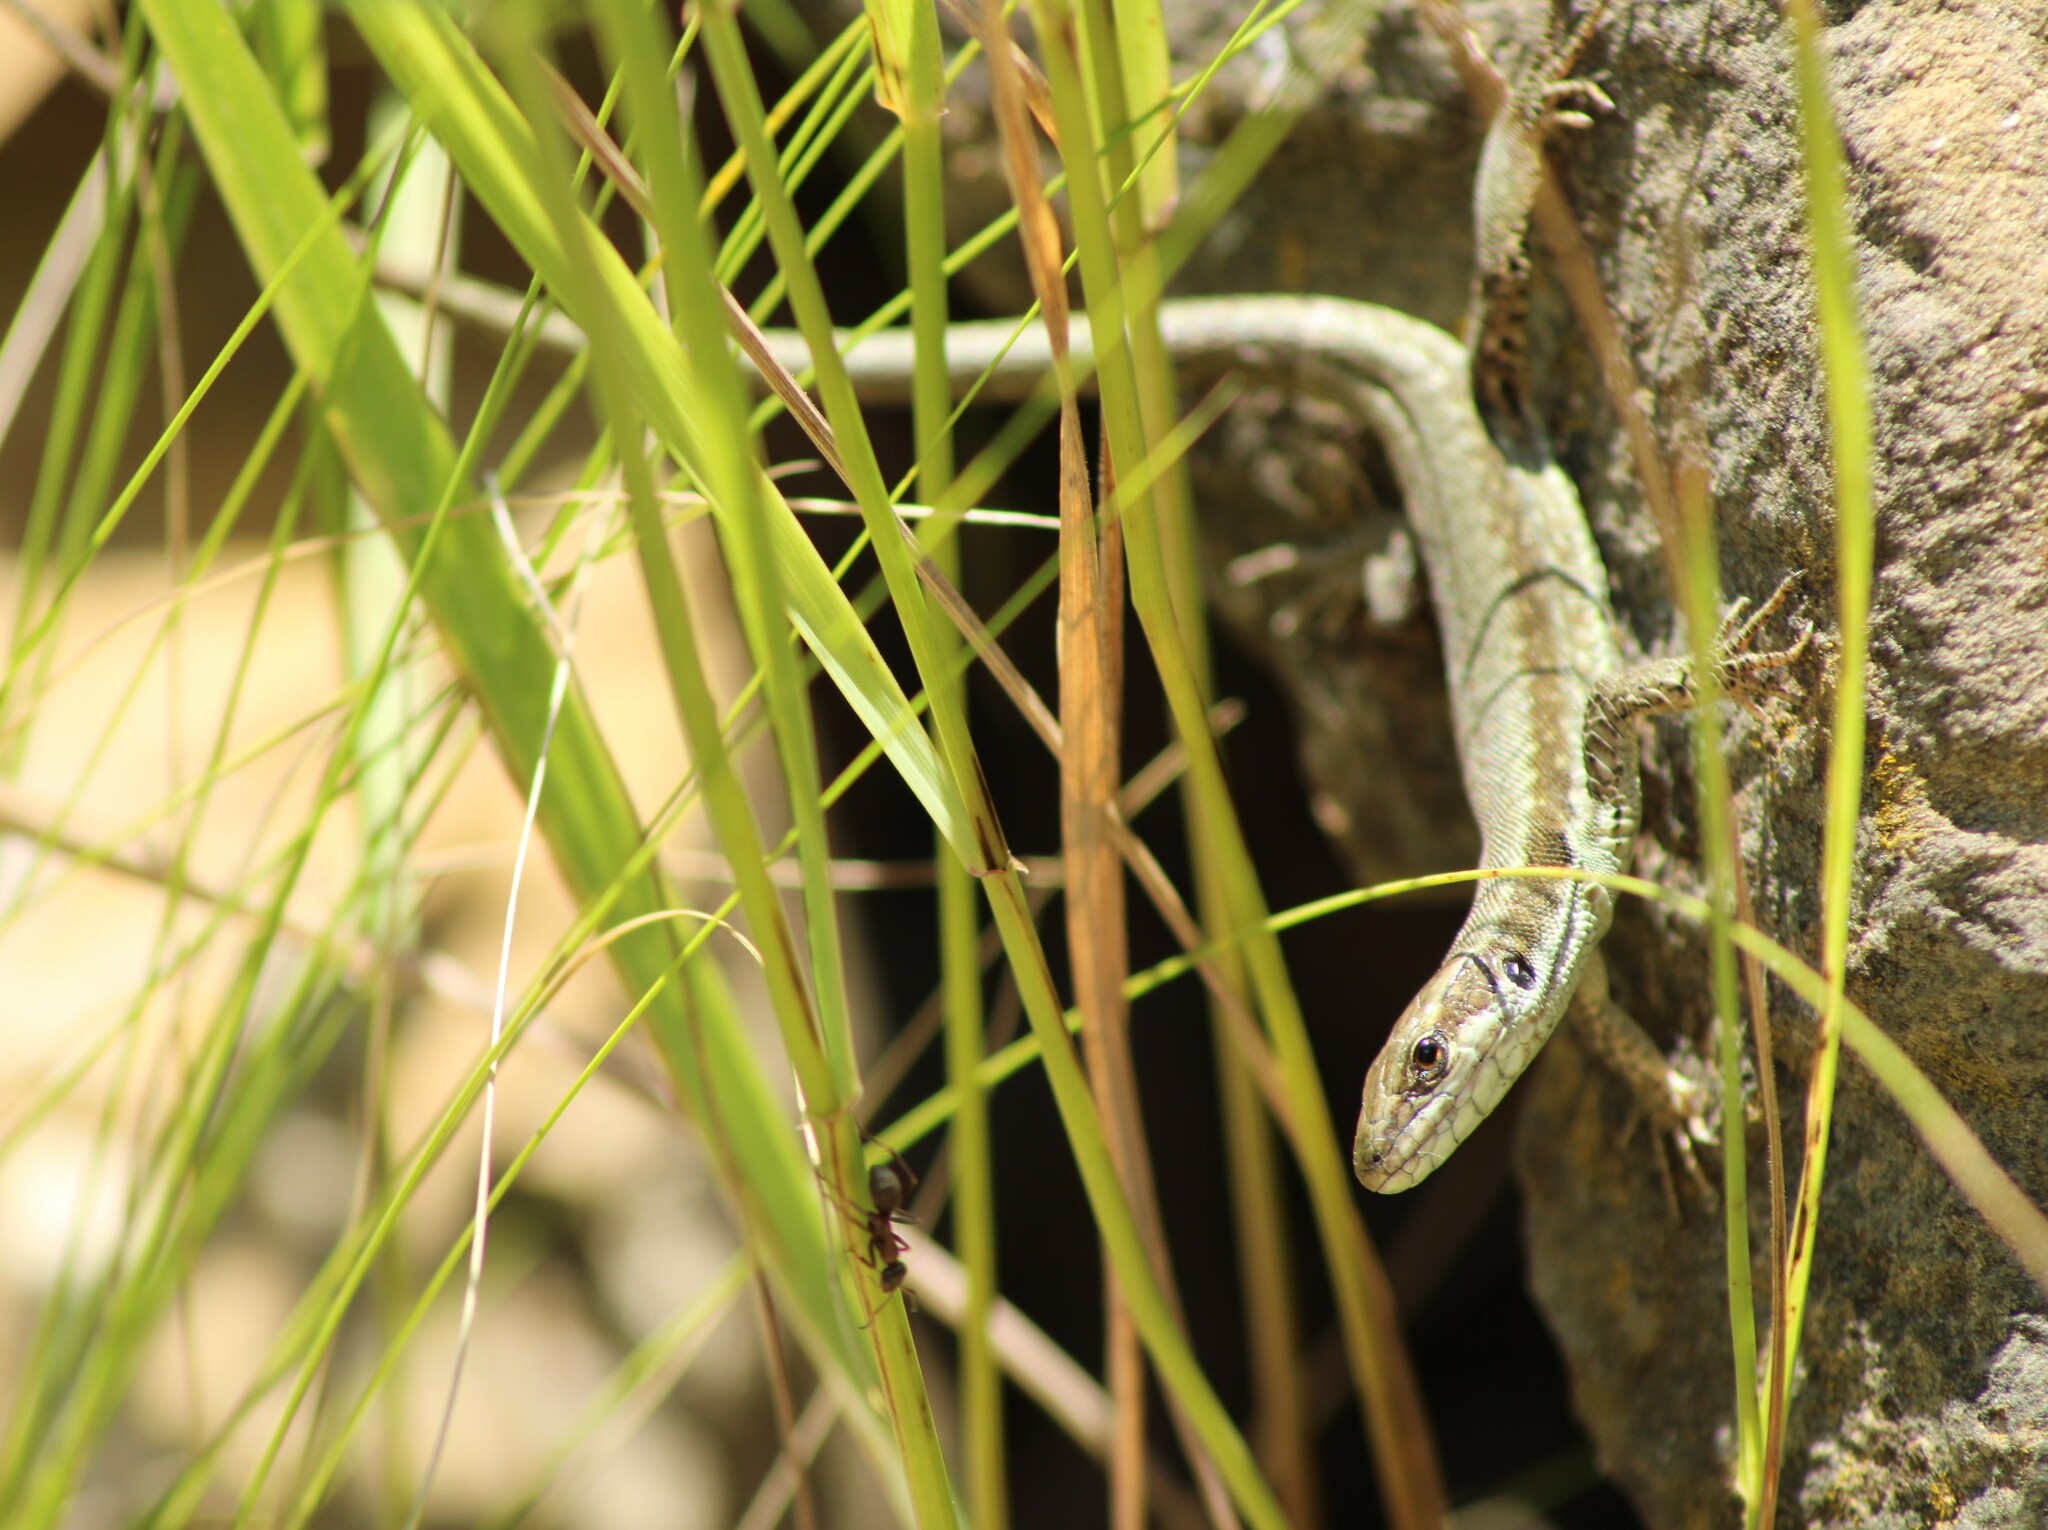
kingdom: Animalia
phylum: Chordata
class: Squamata
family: Lacertidae
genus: Podarcis
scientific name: Podarcis muralis
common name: Common wall lizard
